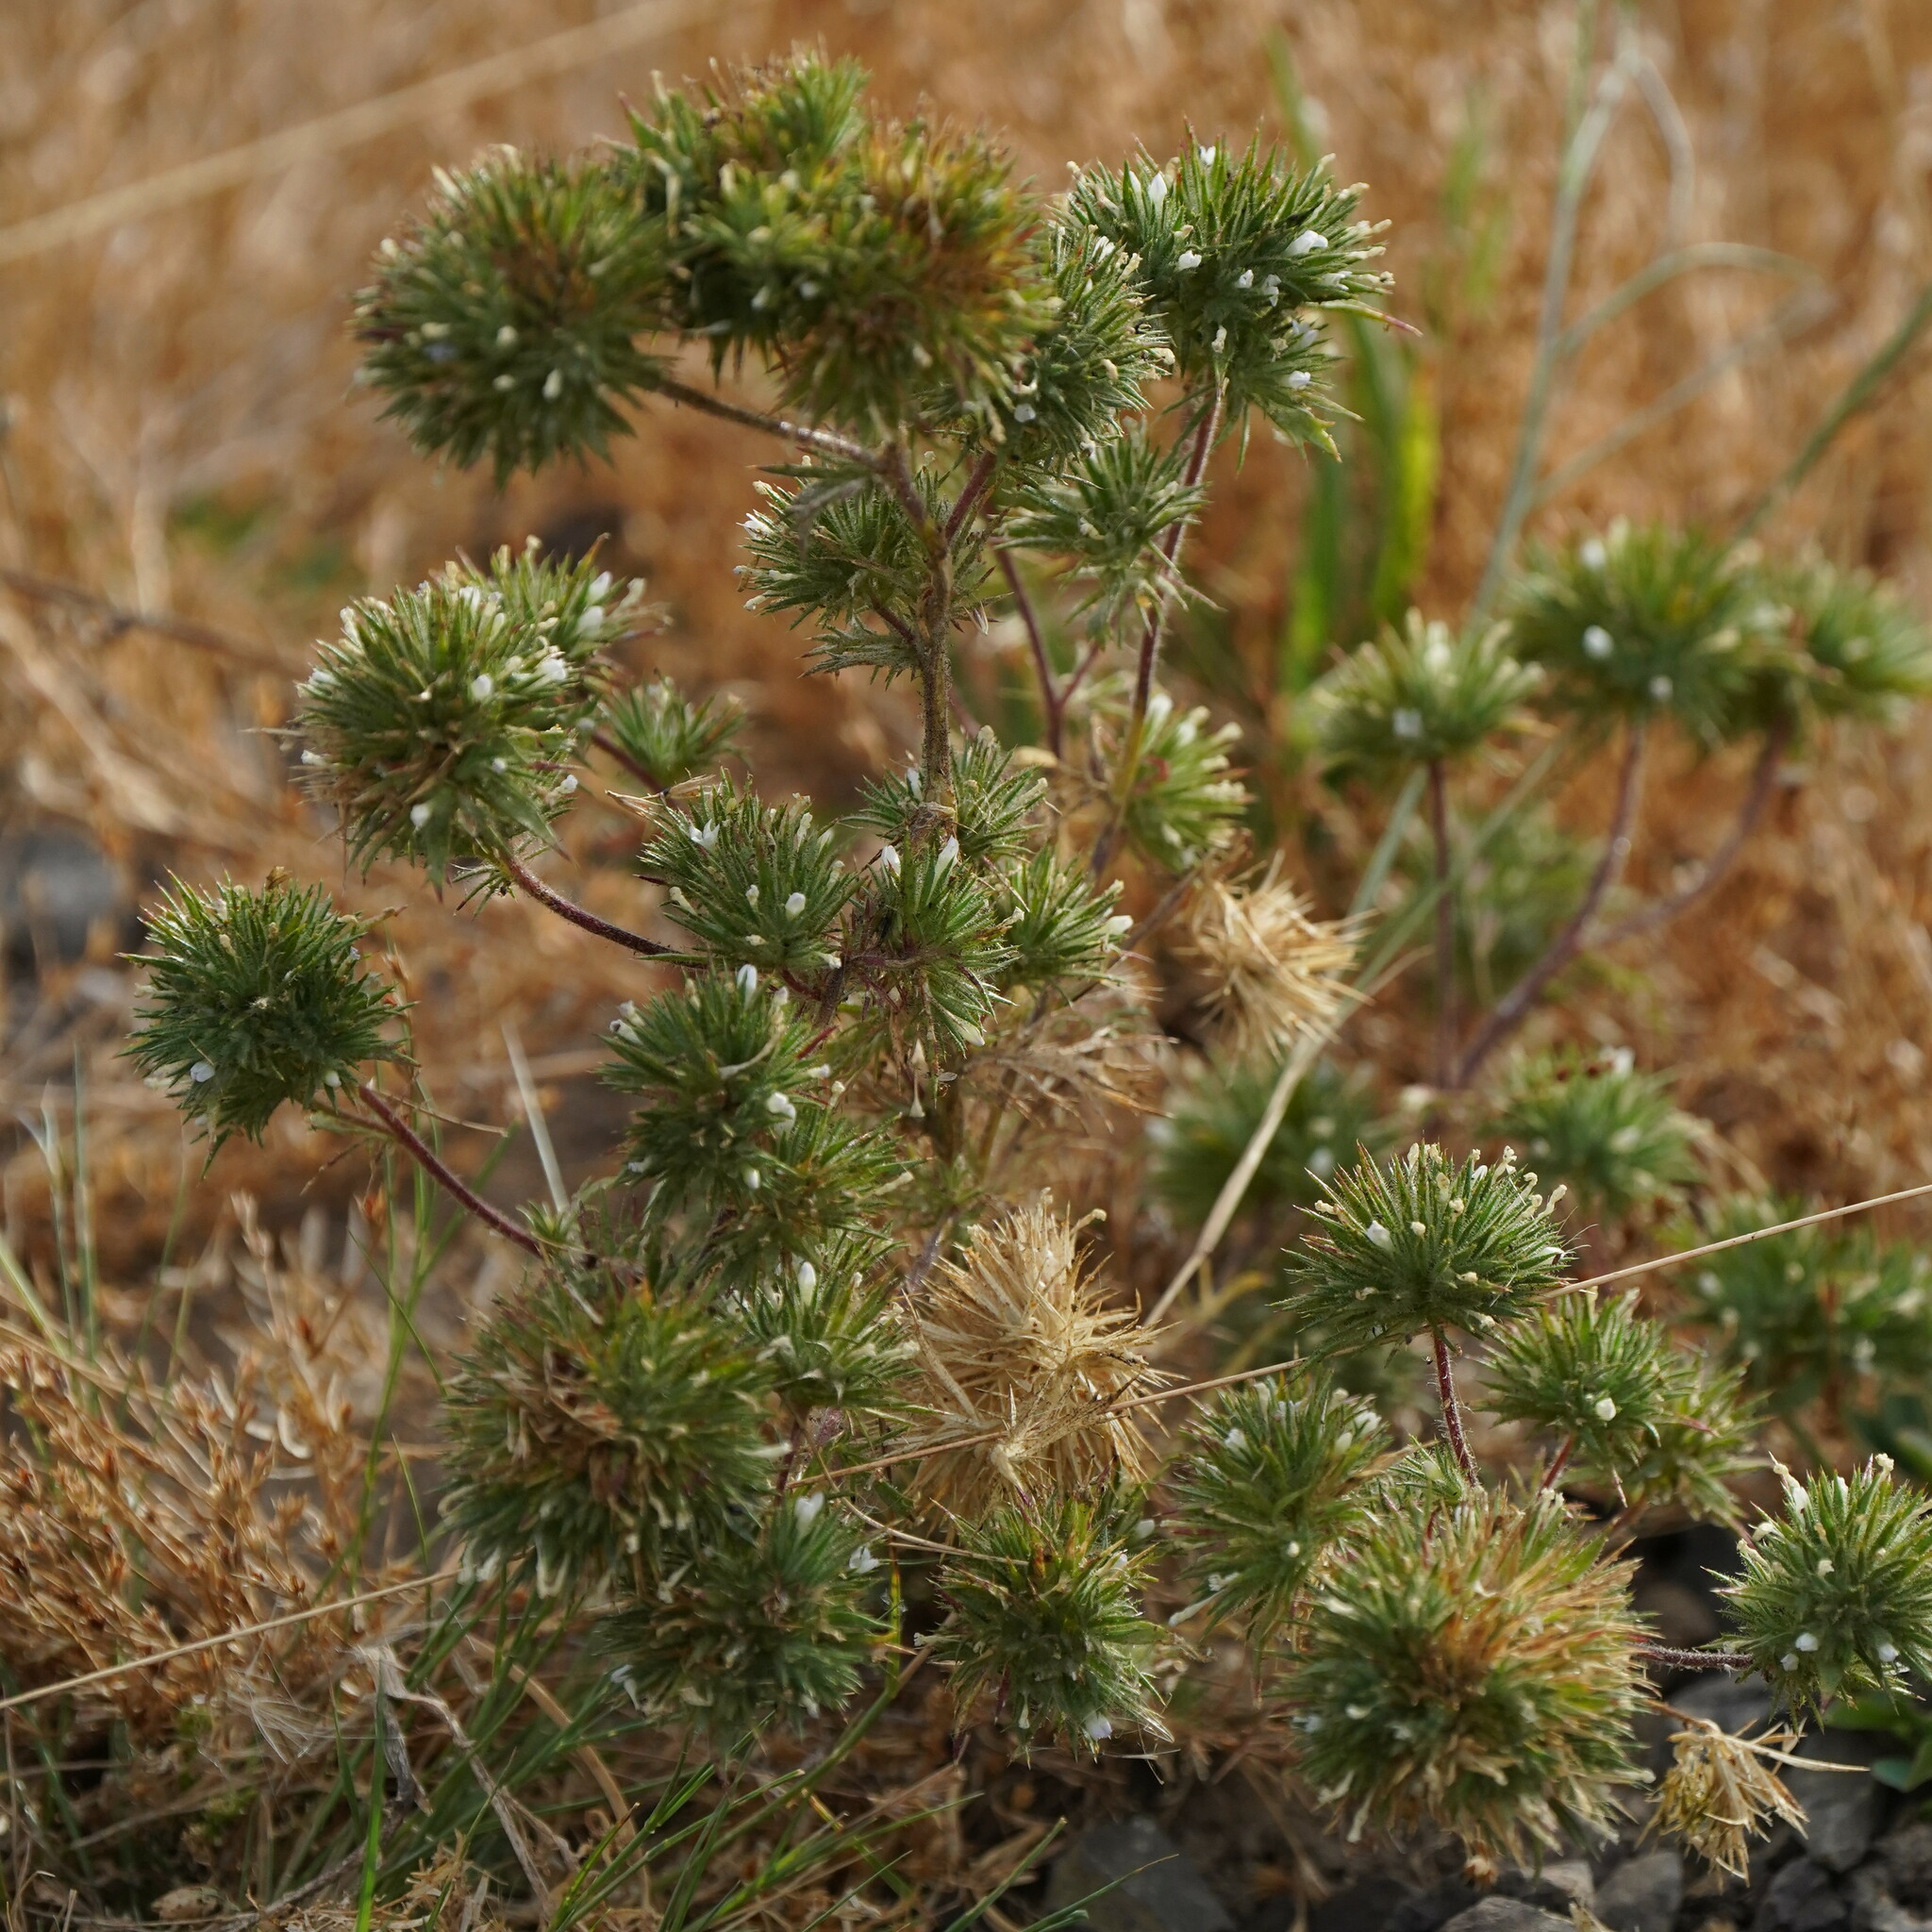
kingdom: Plantae
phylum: Tracheophyta
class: Magnoliopsida
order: Ericales
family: Polemoniaceae
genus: Navarretia
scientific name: Navarretia squarrosa
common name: Skunkweed
